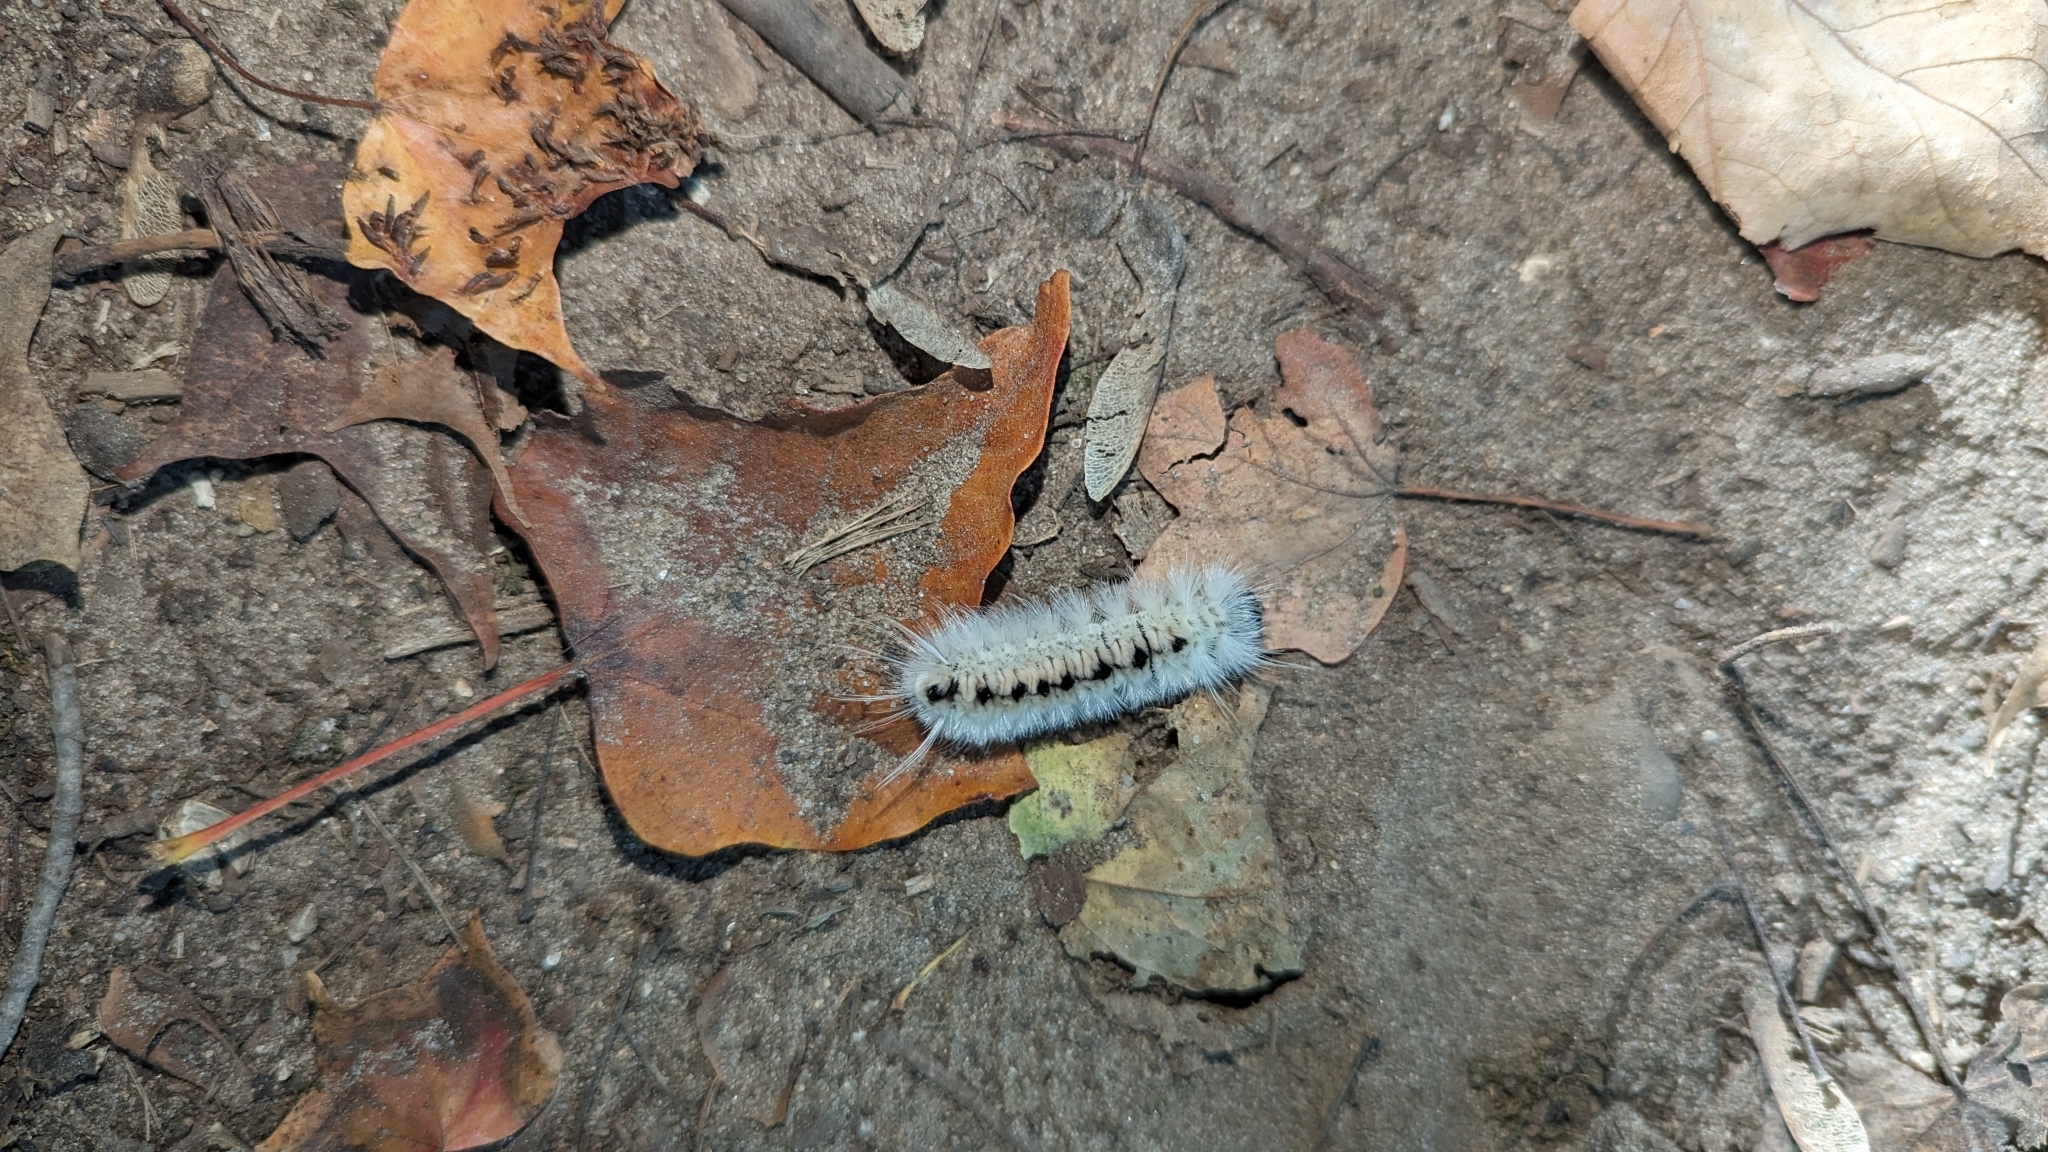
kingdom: Animalia
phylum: Arthropoda
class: Insecta
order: Lepidoptera
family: Erebidae
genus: Lophocampa
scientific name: Lophocampa caryae
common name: Hickory tussock moth
